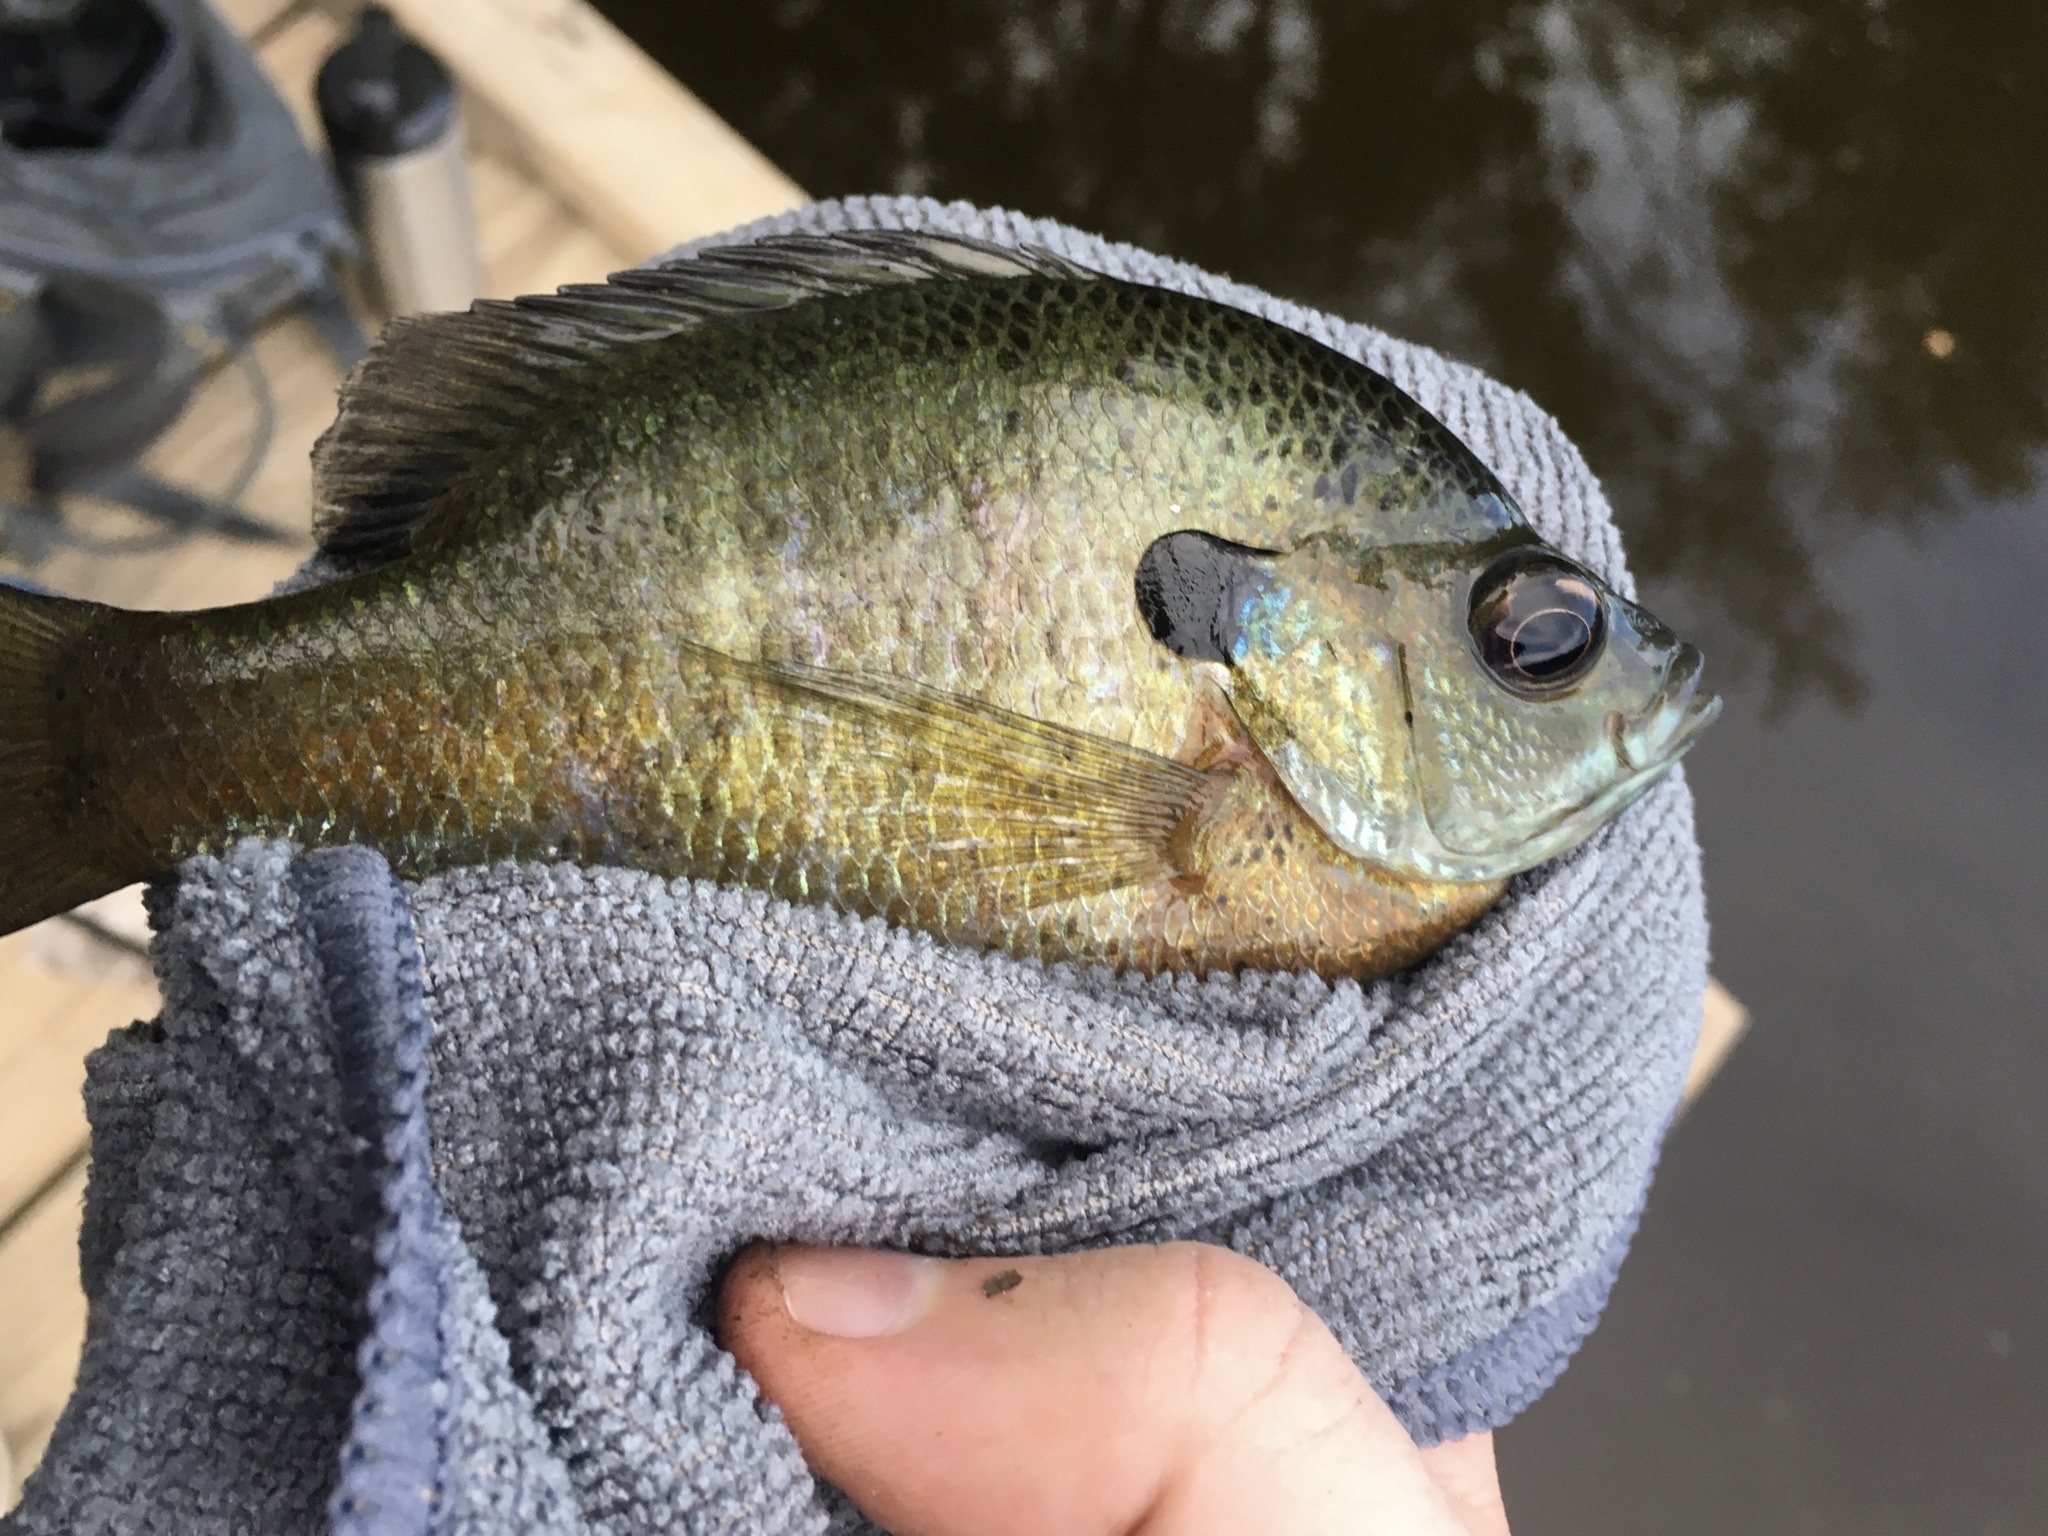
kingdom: Animalia
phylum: Chordata
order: Perciformes
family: Centrarchidae
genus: Lepomis
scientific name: Lepomis macrochirus
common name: Bluegill
